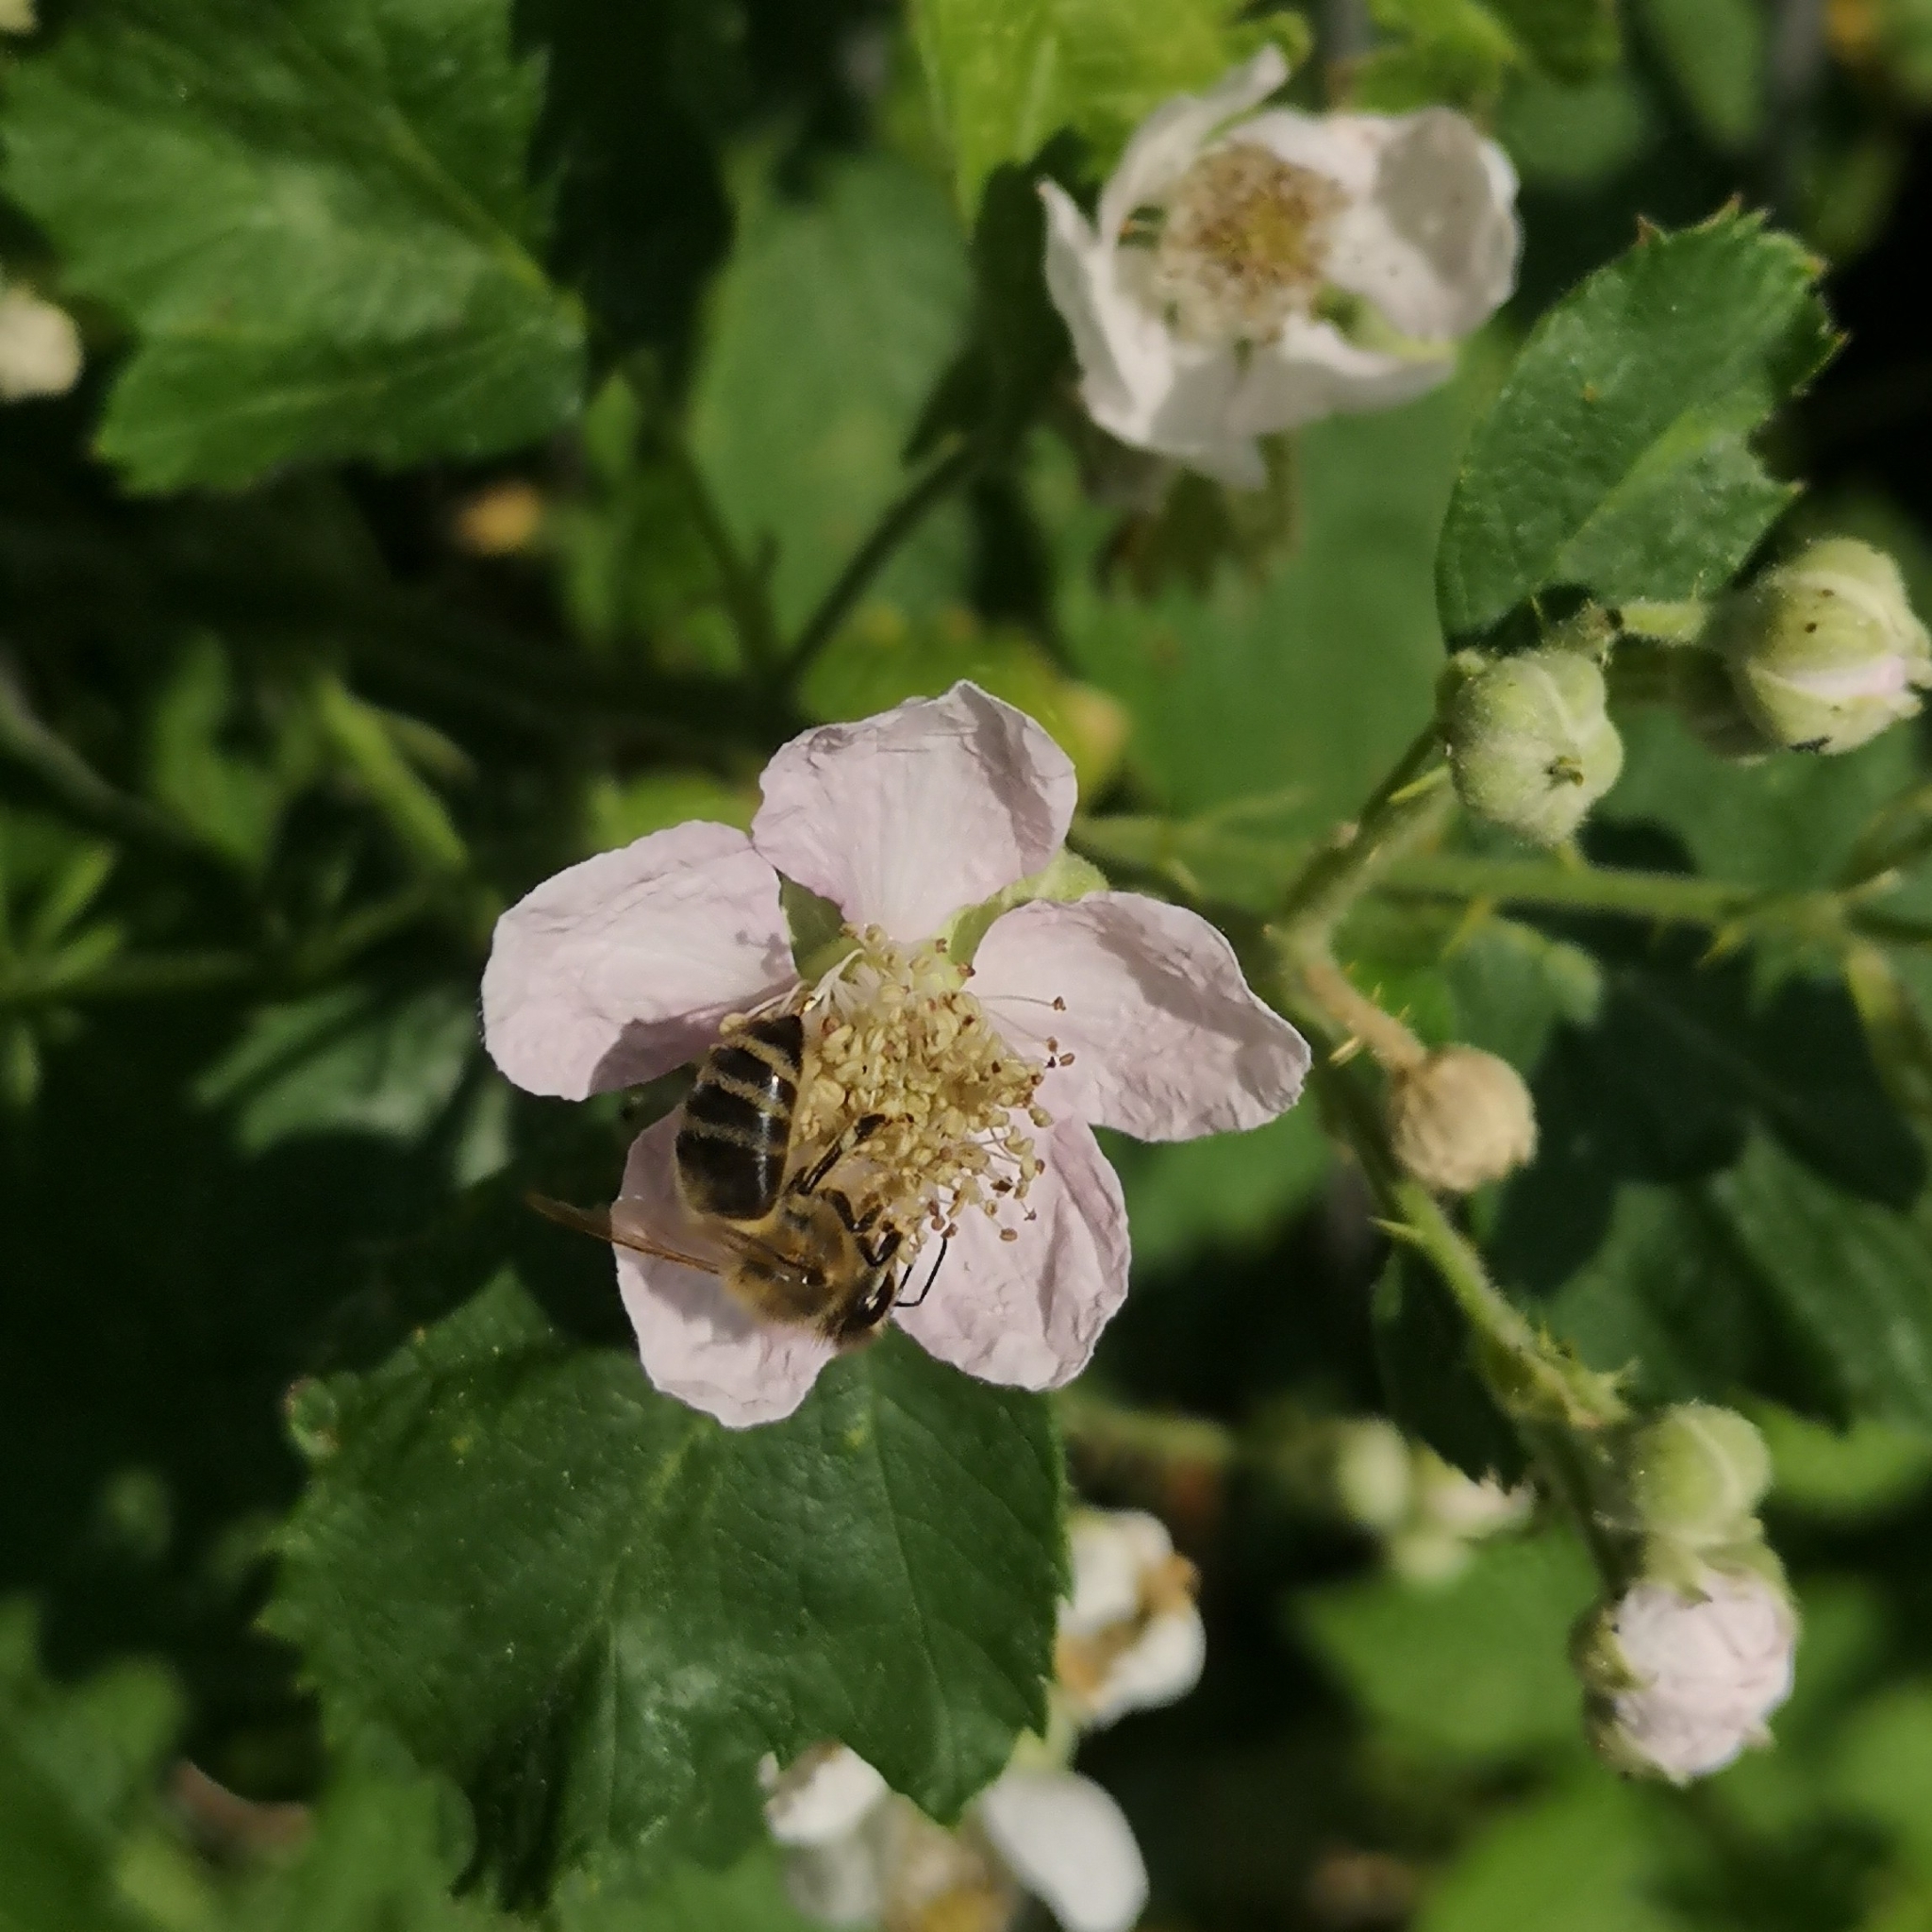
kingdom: Animalia
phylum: Arthropoda
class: Insecta
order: Hymenoptera
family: Apidae
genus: Apis
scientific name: Apis mellifera
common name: Honey bee
